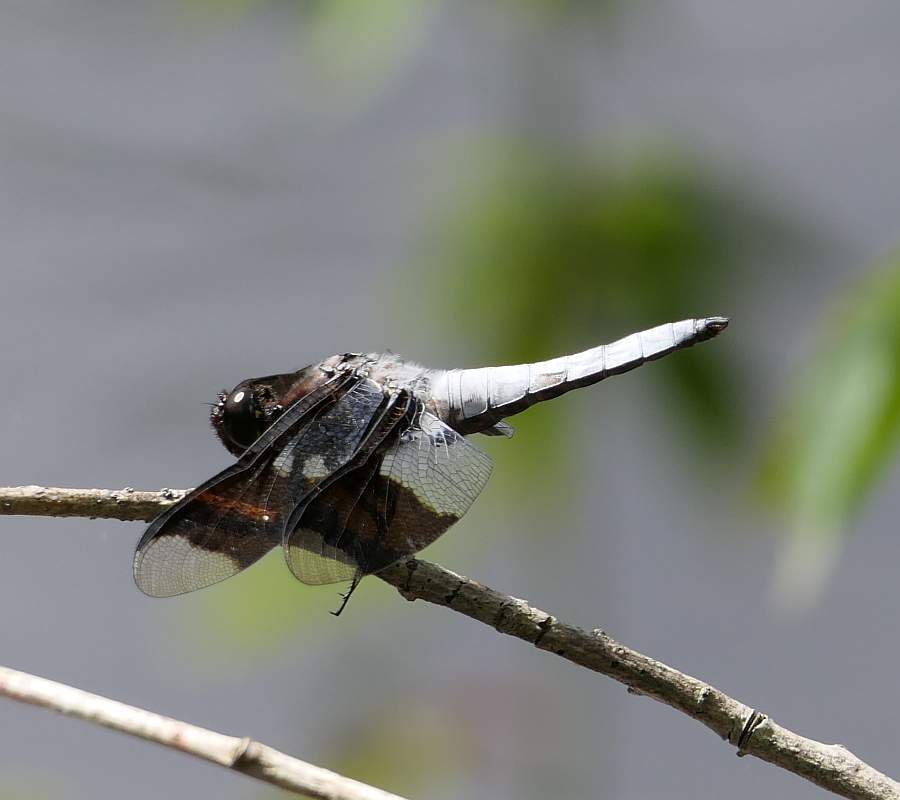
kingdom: Animalia
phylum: Arthropoda
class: Insecta
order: Odonata
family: Libellulidae
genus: Plathemis
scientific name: Plathemis lydia
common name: Common whitetail
